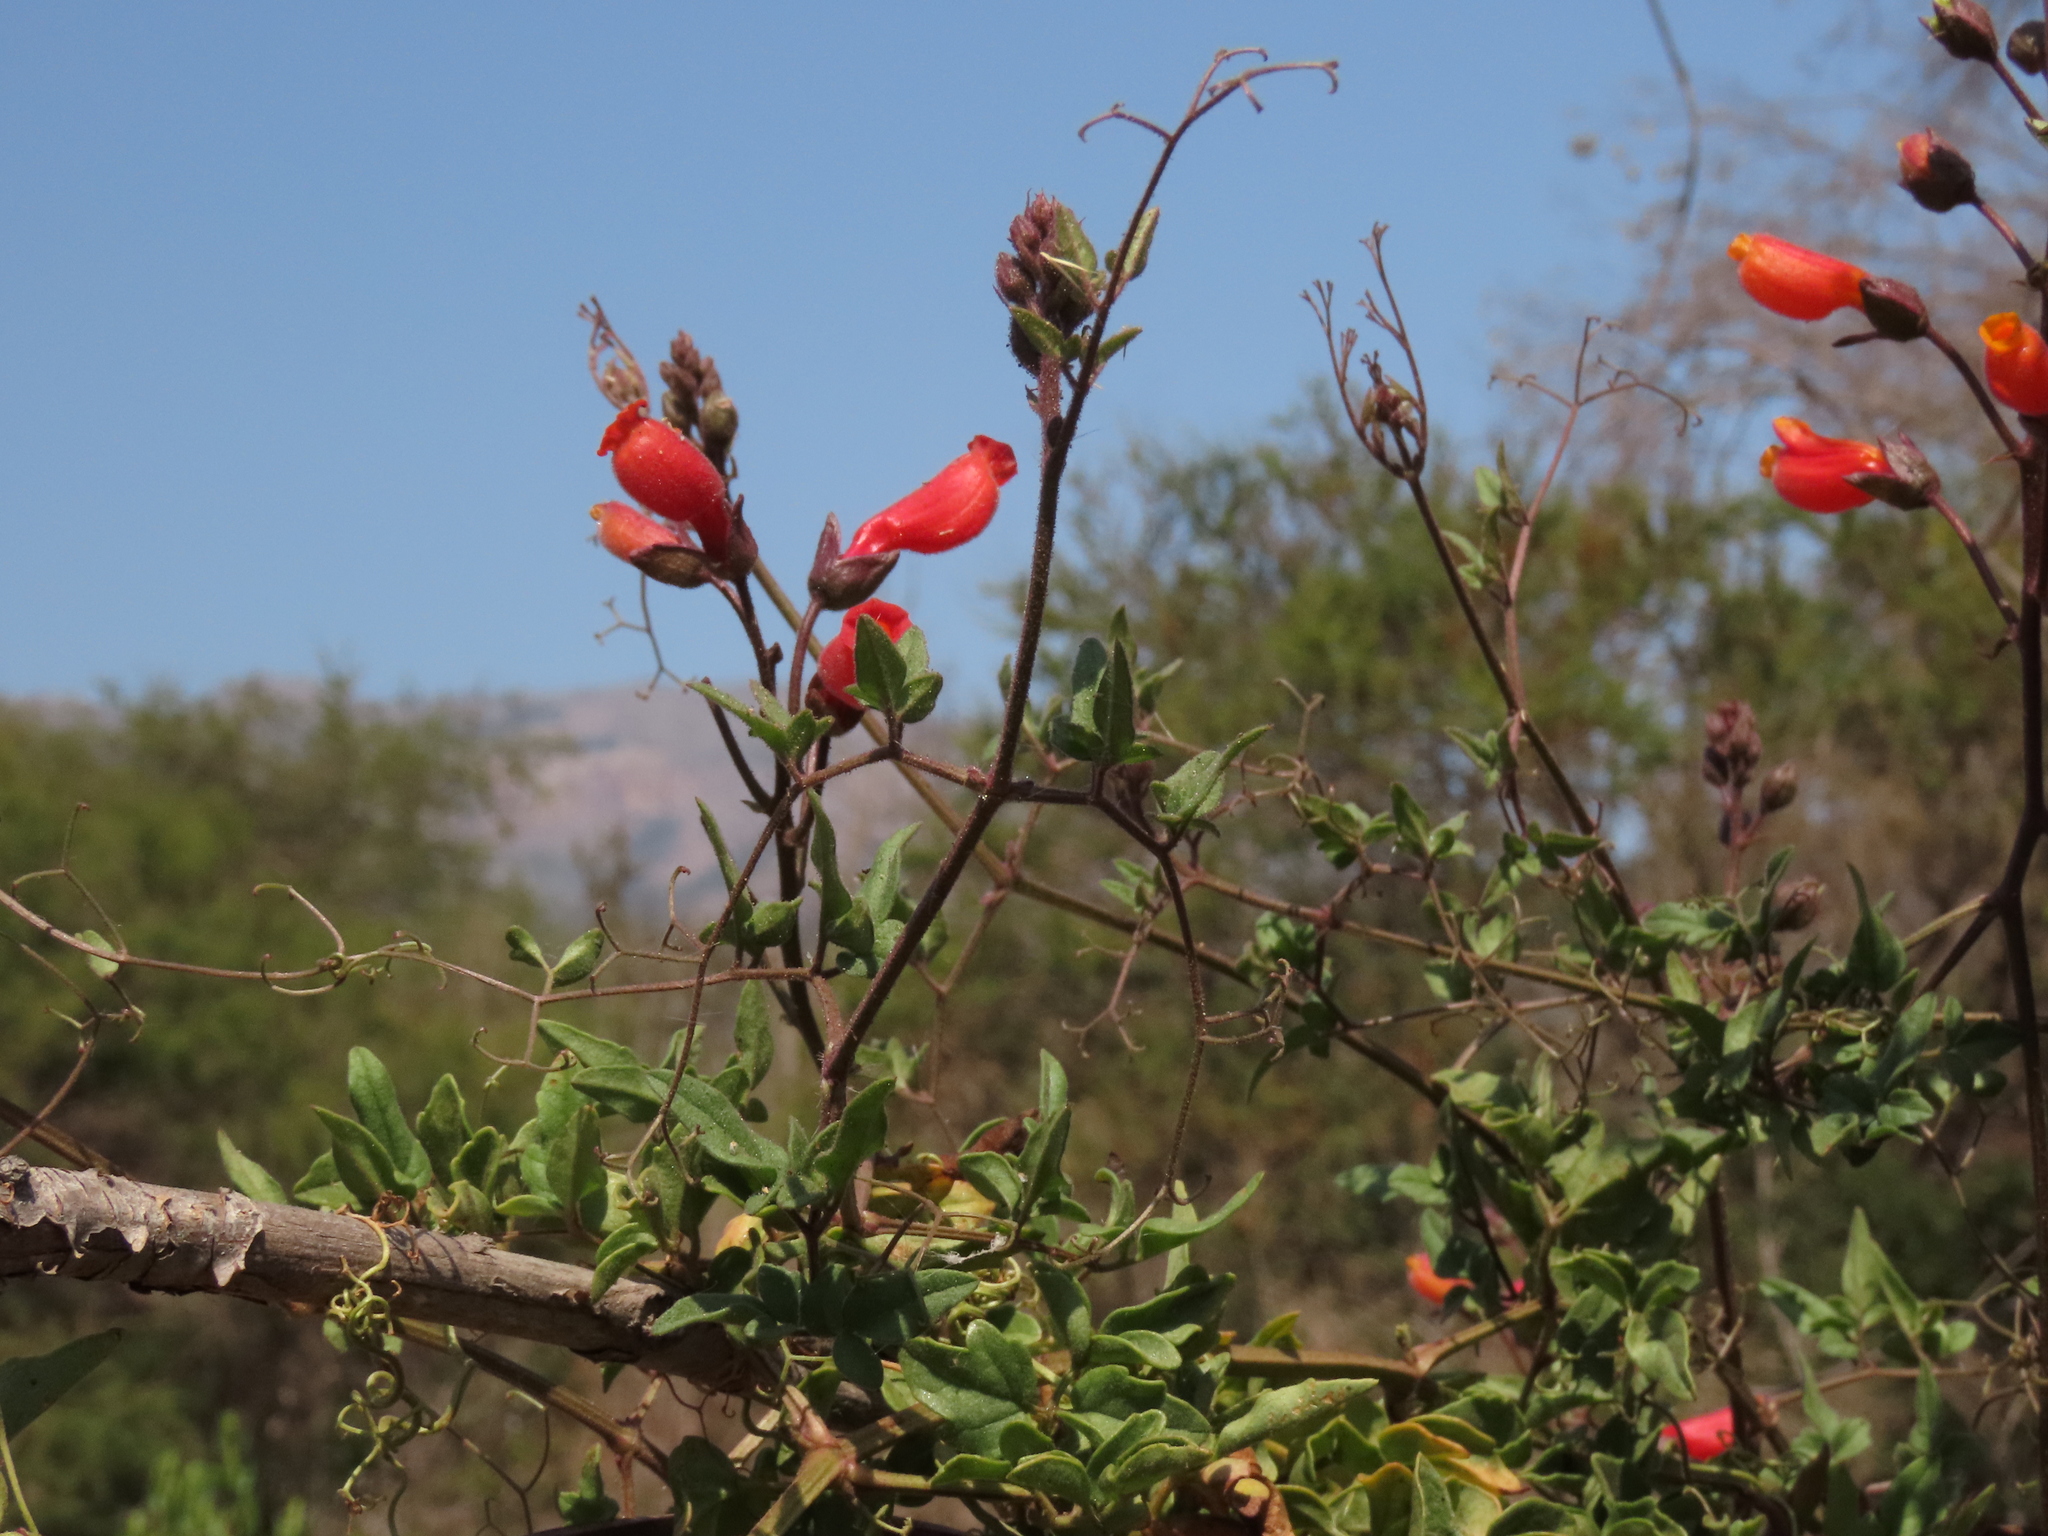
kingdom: Plantae
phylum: Tracheophyta
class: Magnoliopsida
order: Lamiales
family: Bignoniaceae
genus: Eccremocarpus
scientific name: Eccremocarpus scaber
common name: Chilean glory-flower
